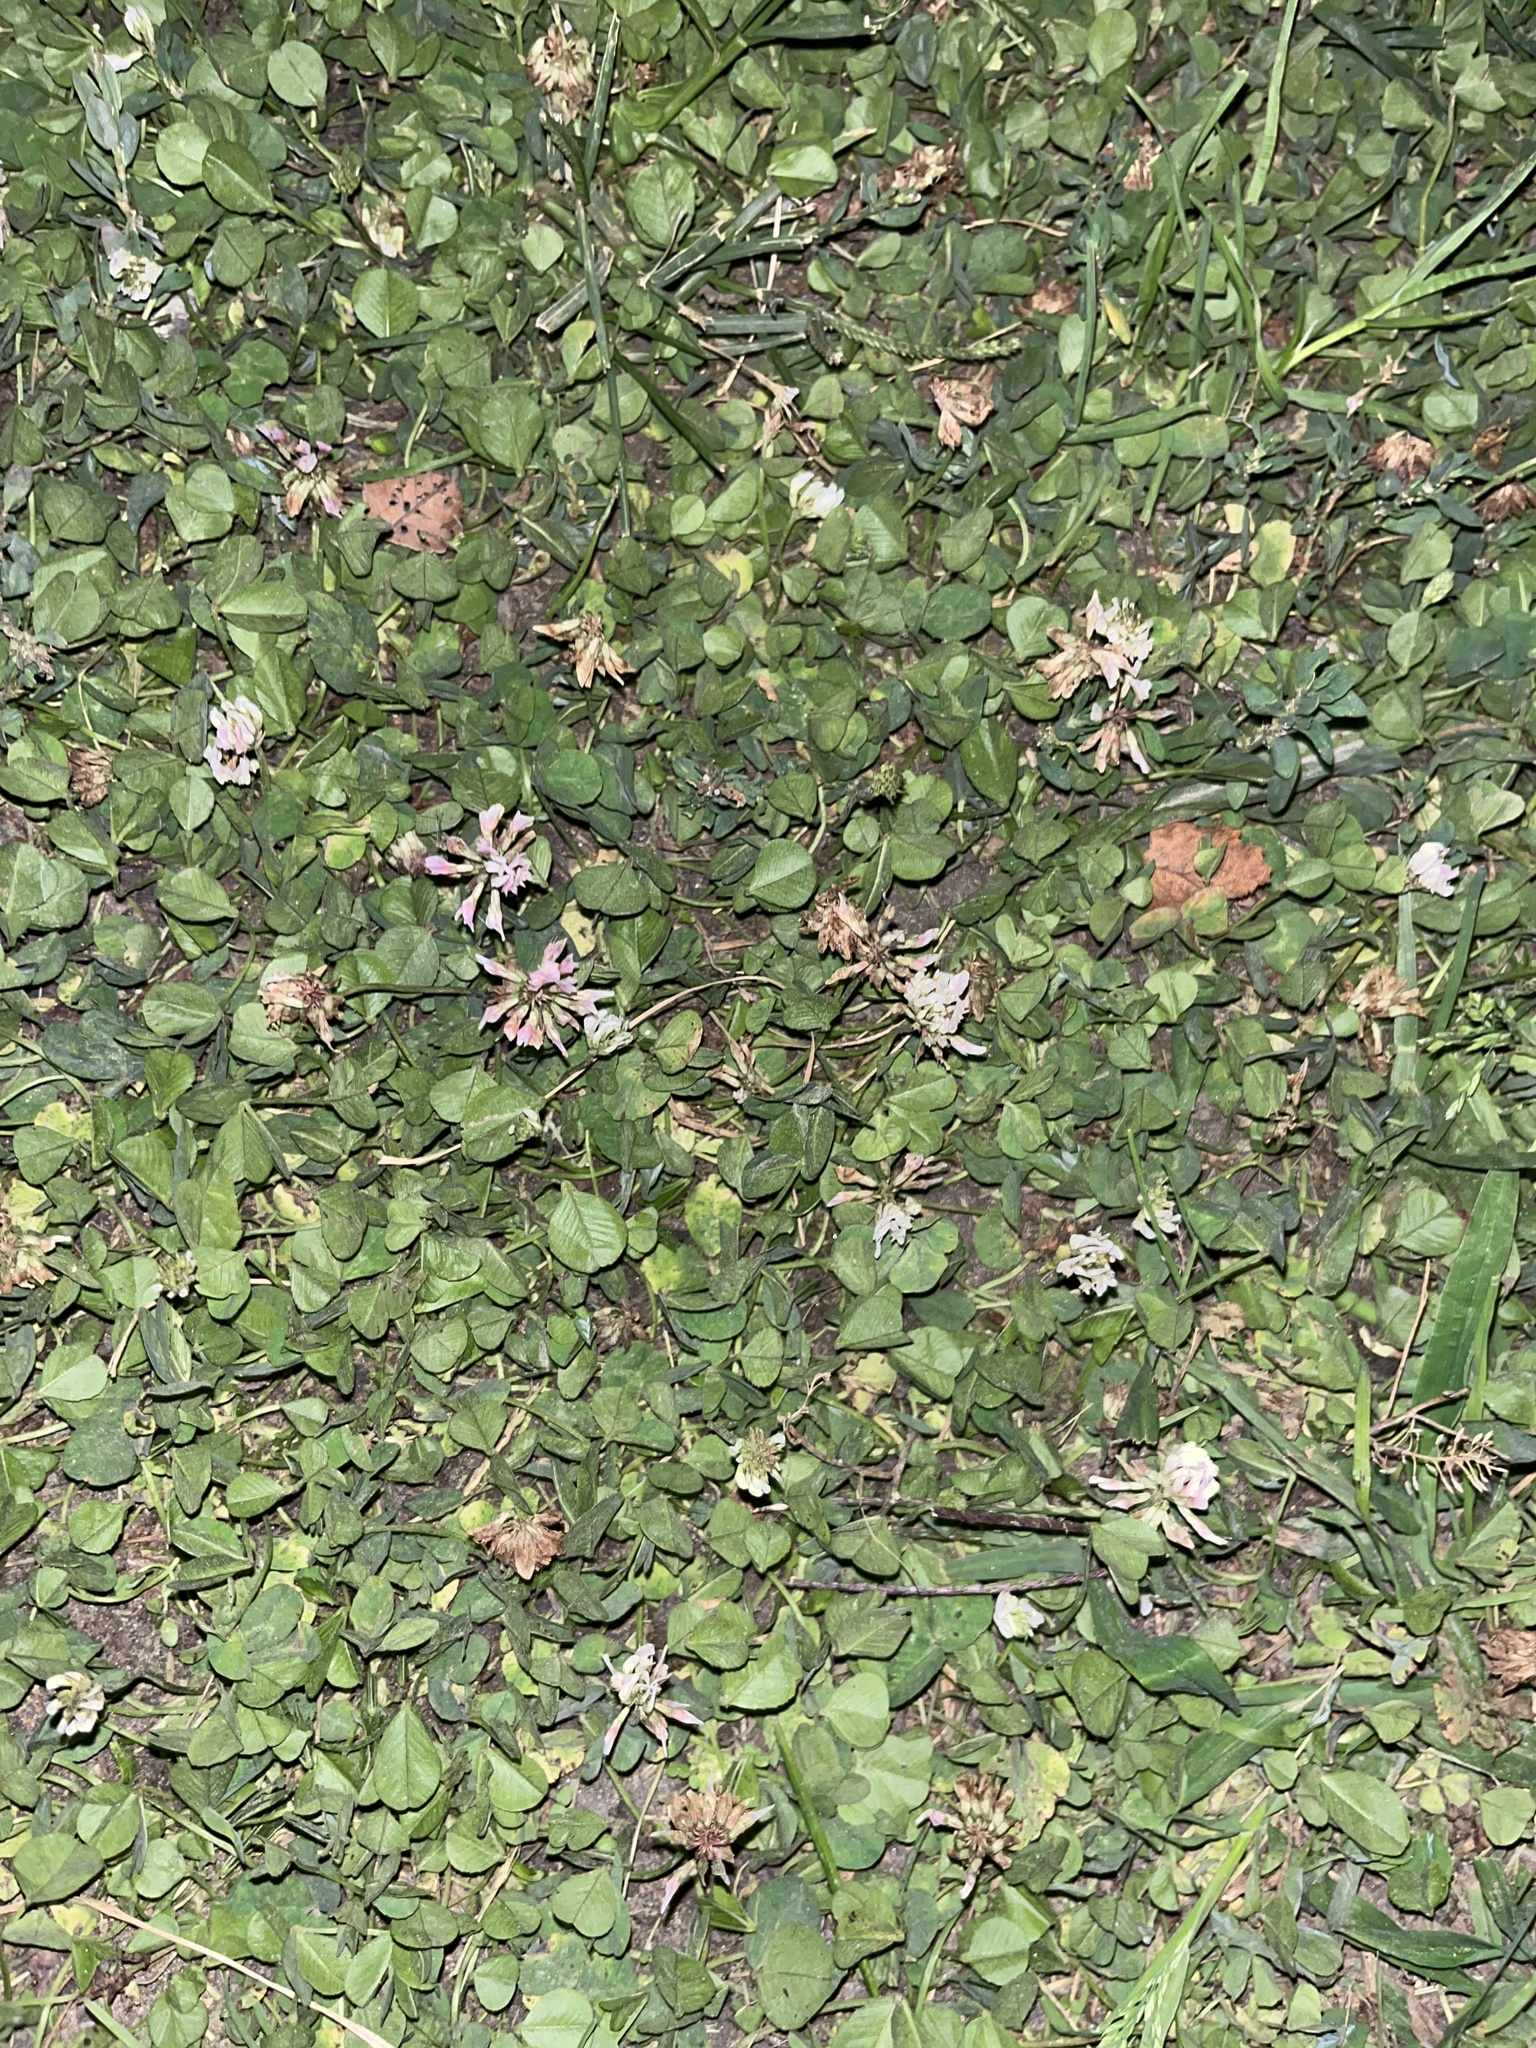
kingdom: Plantae
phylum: Tracheophyta
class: Magnoliopsida
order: Fabales
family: Fabaceae
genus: Trifolium
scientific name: Trifolium repens
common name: White clover
